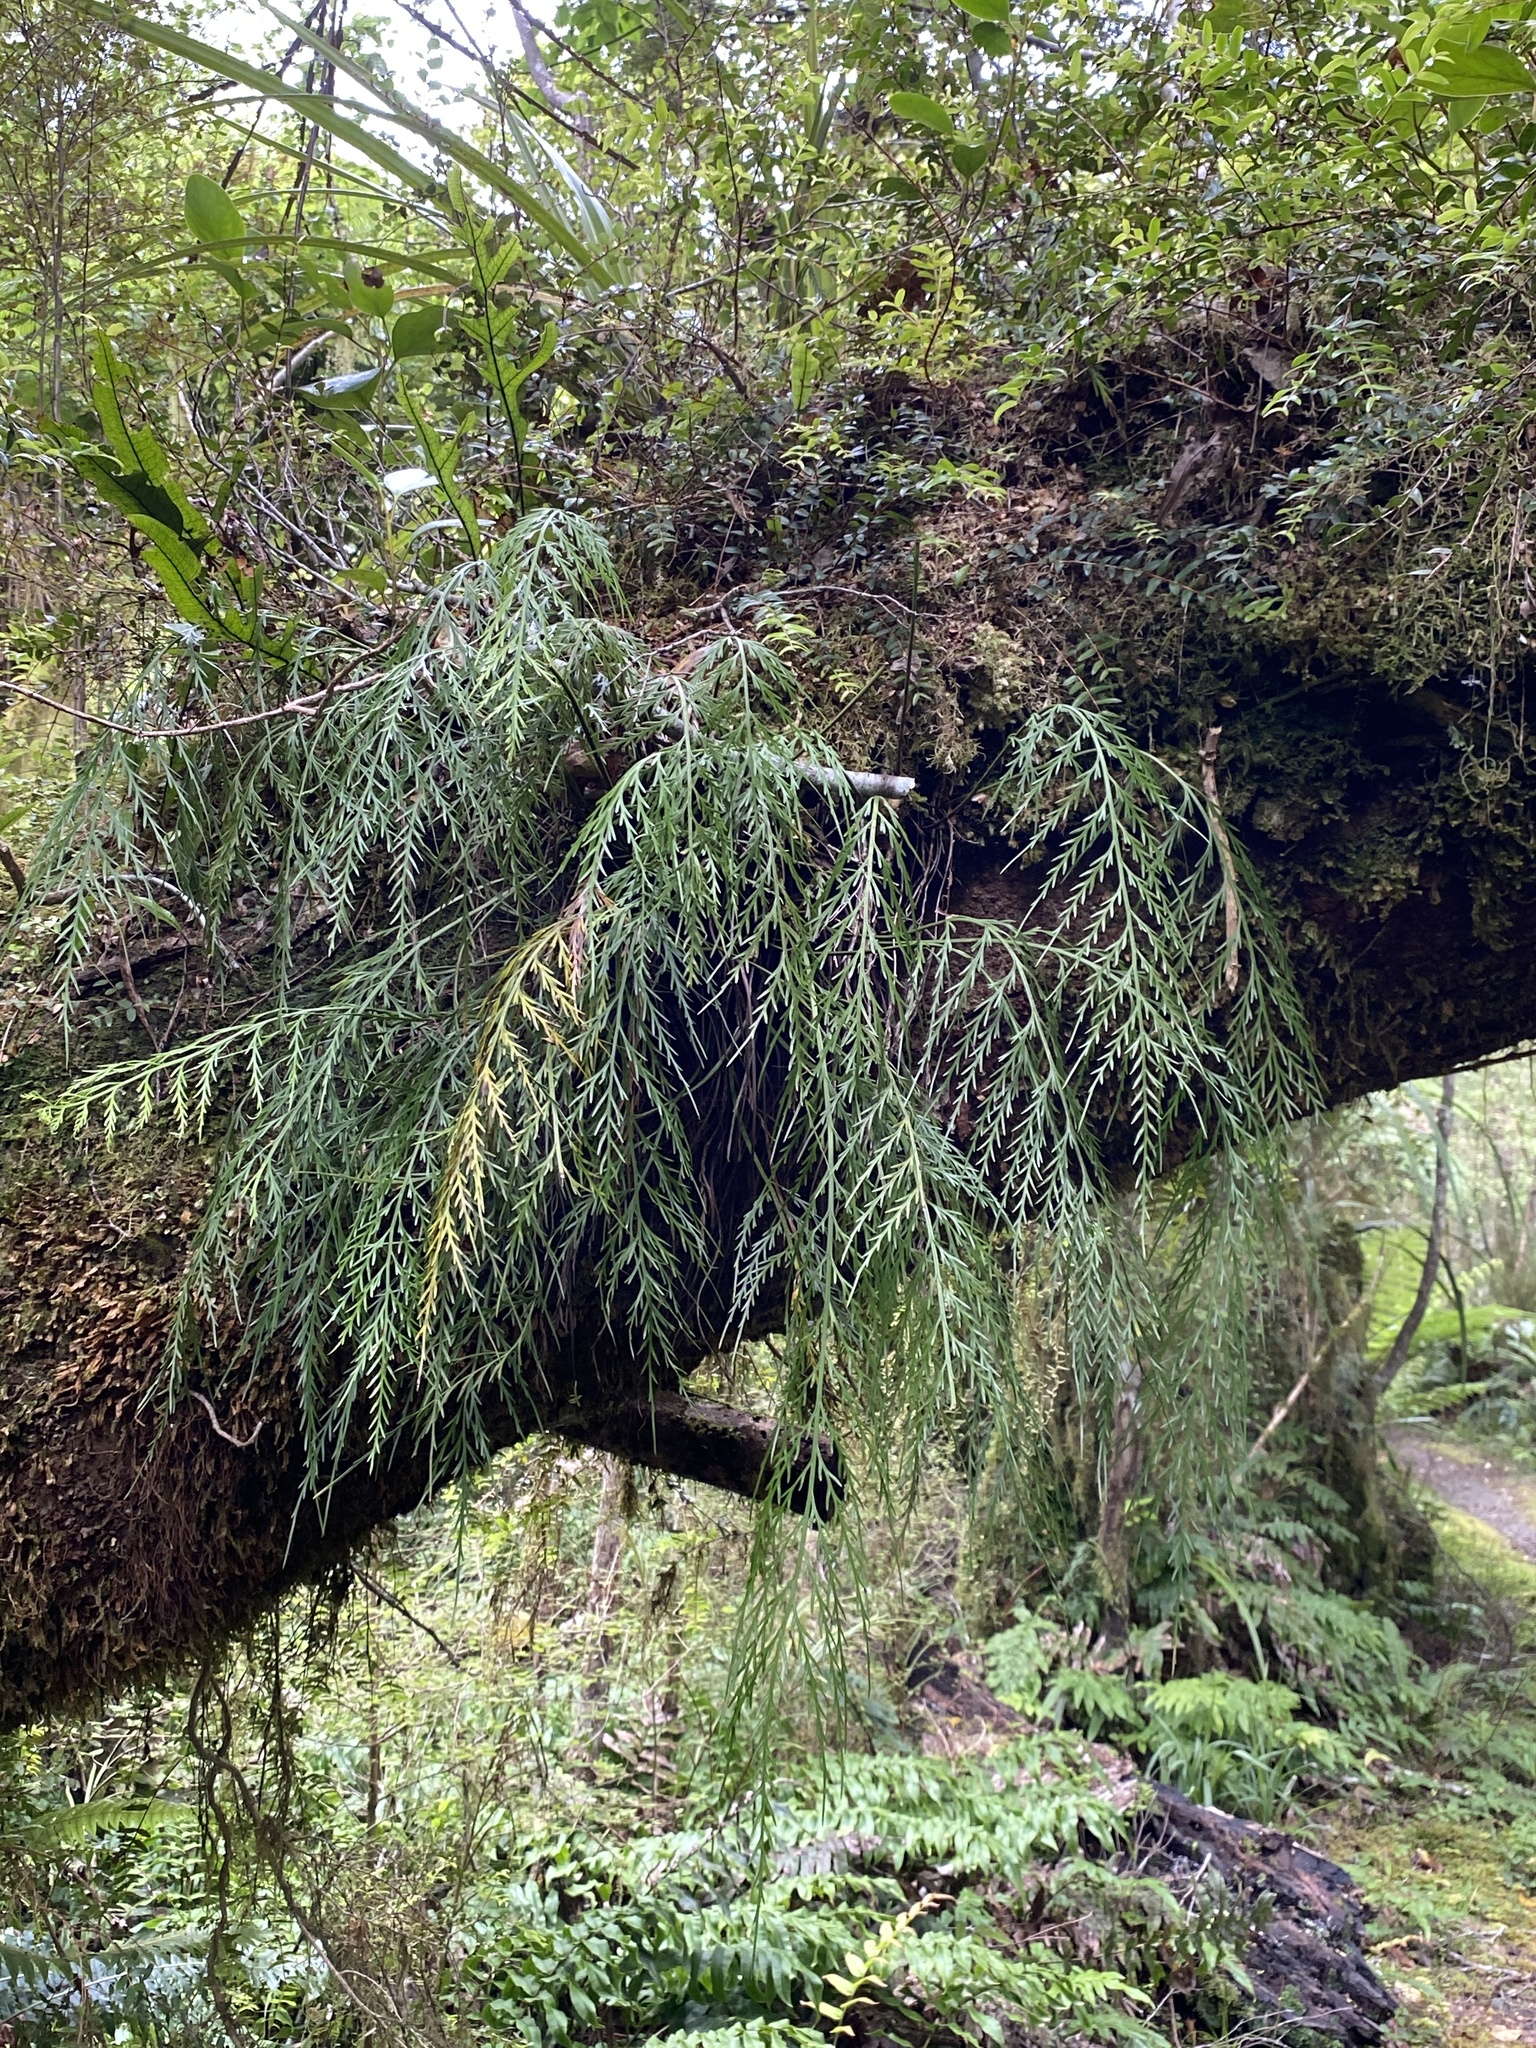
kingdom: Plantae
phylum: Tracheophyta
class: Polypodiopsida
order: Polypodiales
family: Aspleniaceae
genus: Asplenium
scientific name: Asplenium flaccidum
